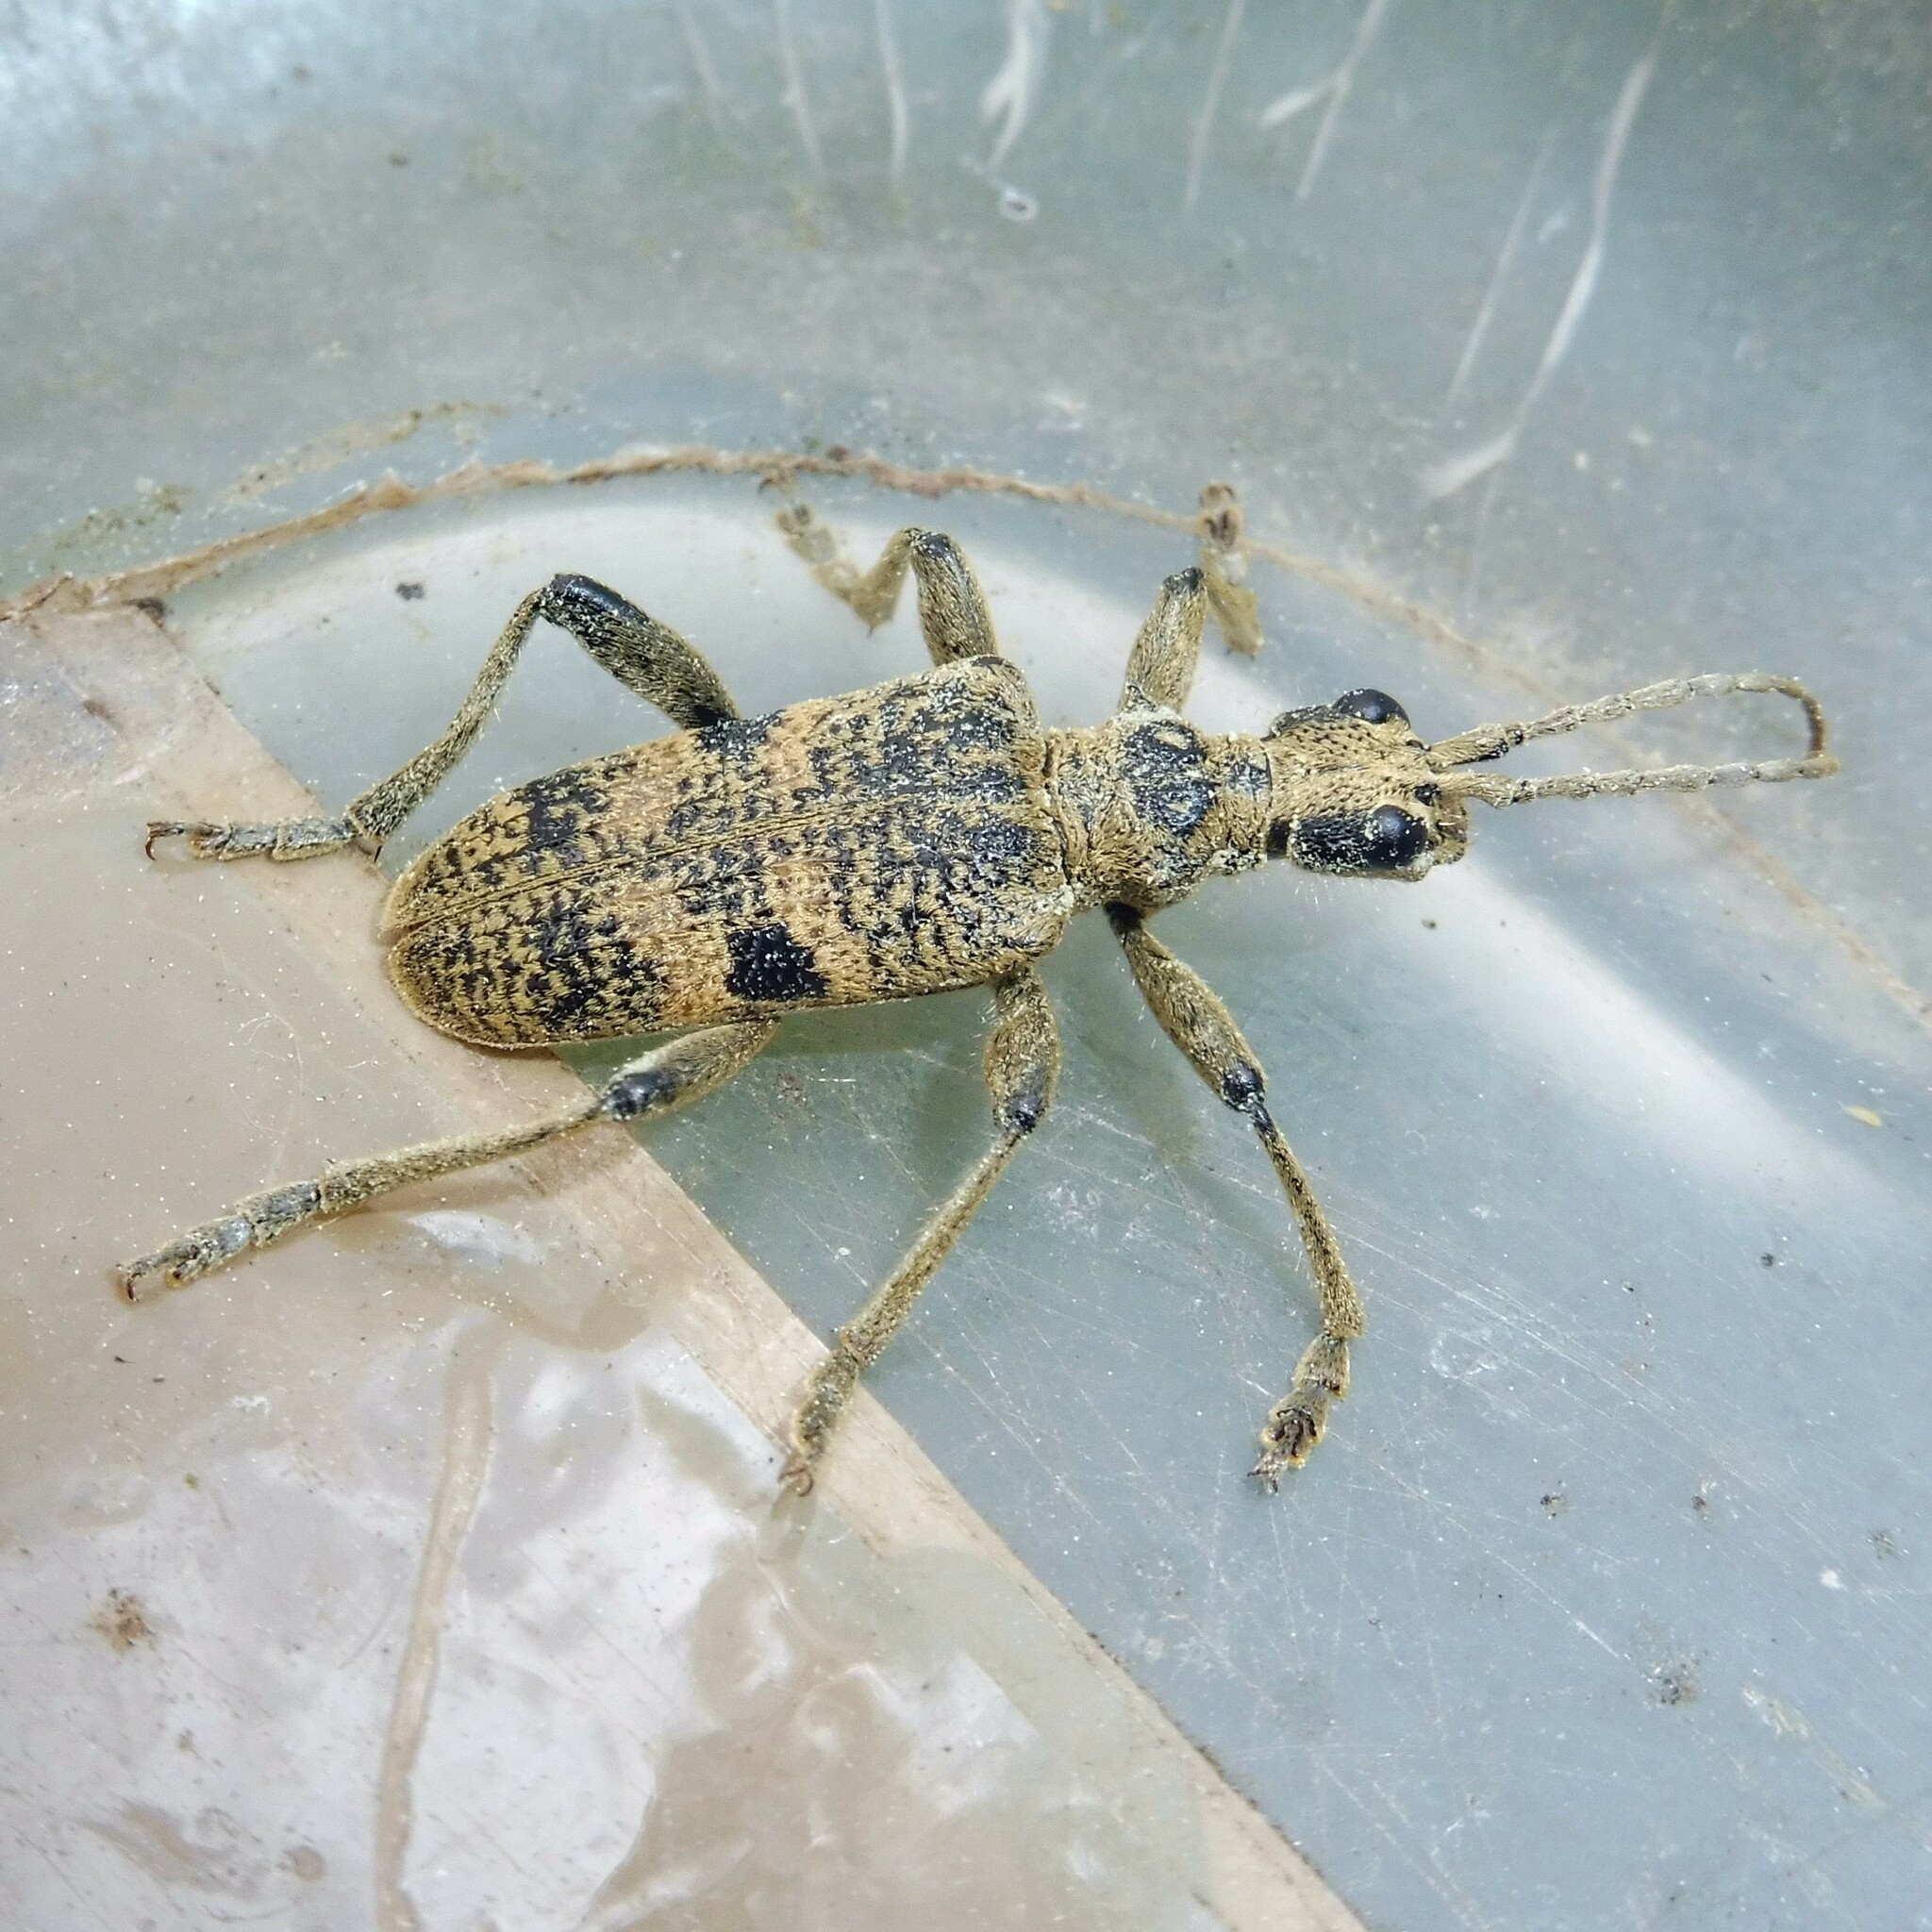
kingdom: Animalia
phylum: Arthropoda
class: Insecta
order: Coleoptera
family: Cerambycidae
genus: Rhagium
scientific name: Rhagium mordax
